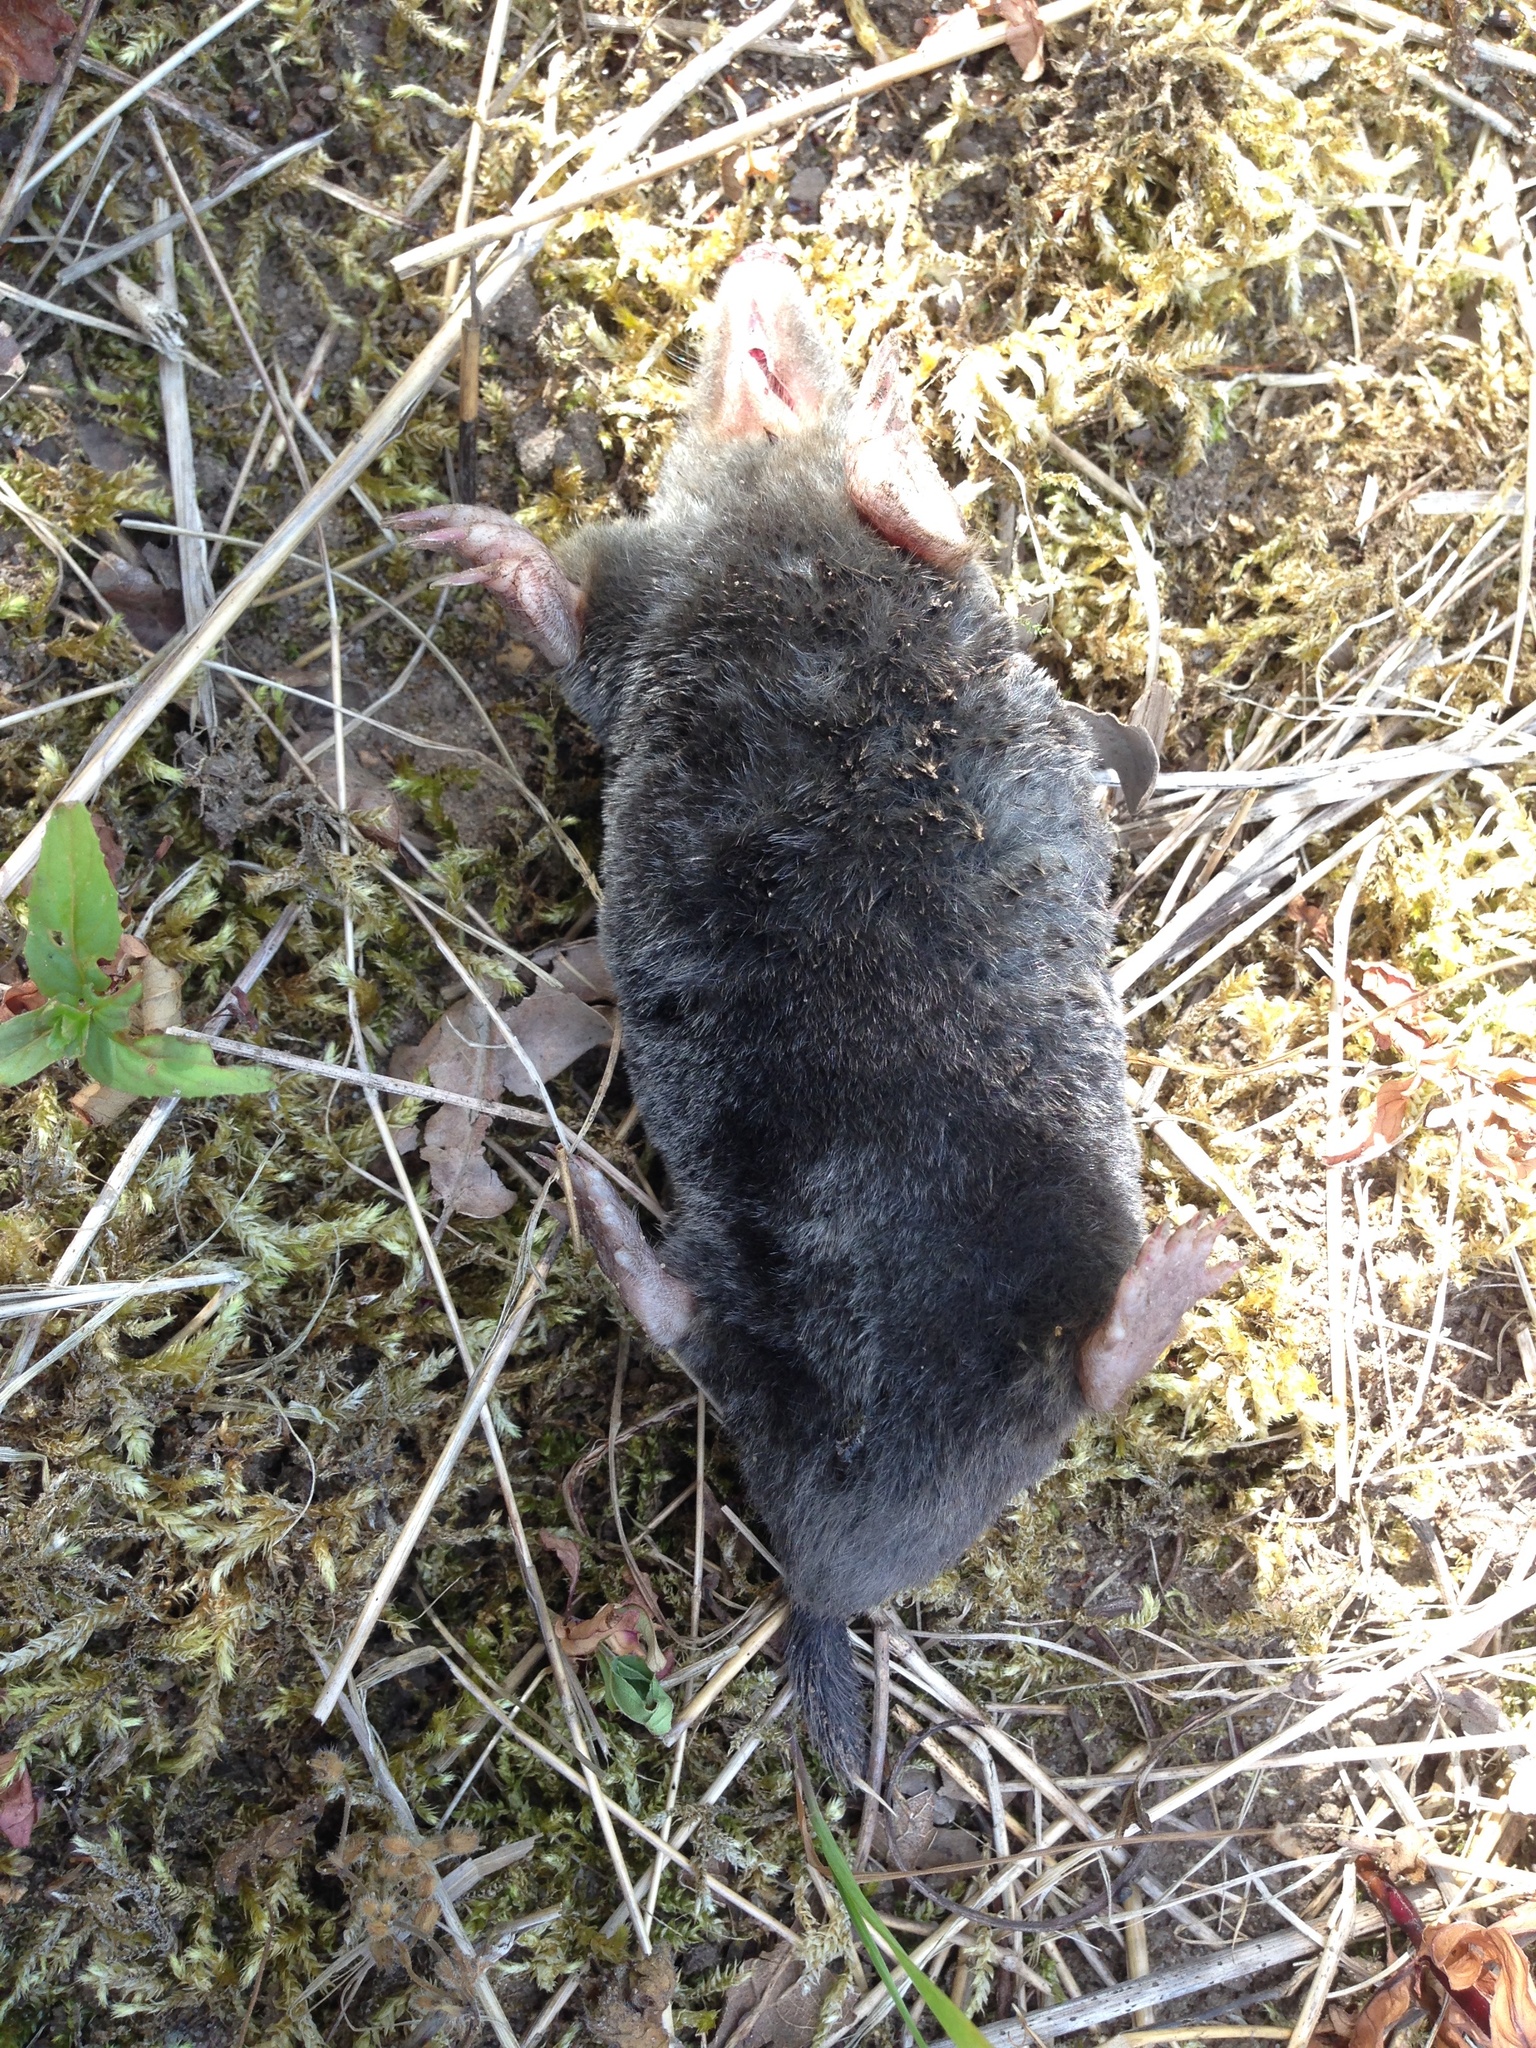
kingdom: Animalia
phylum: Chordata
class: Mammalia
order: Soricomorpha
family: Talpidae
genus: Talpa
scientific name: Talpa europaea
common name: European mole
